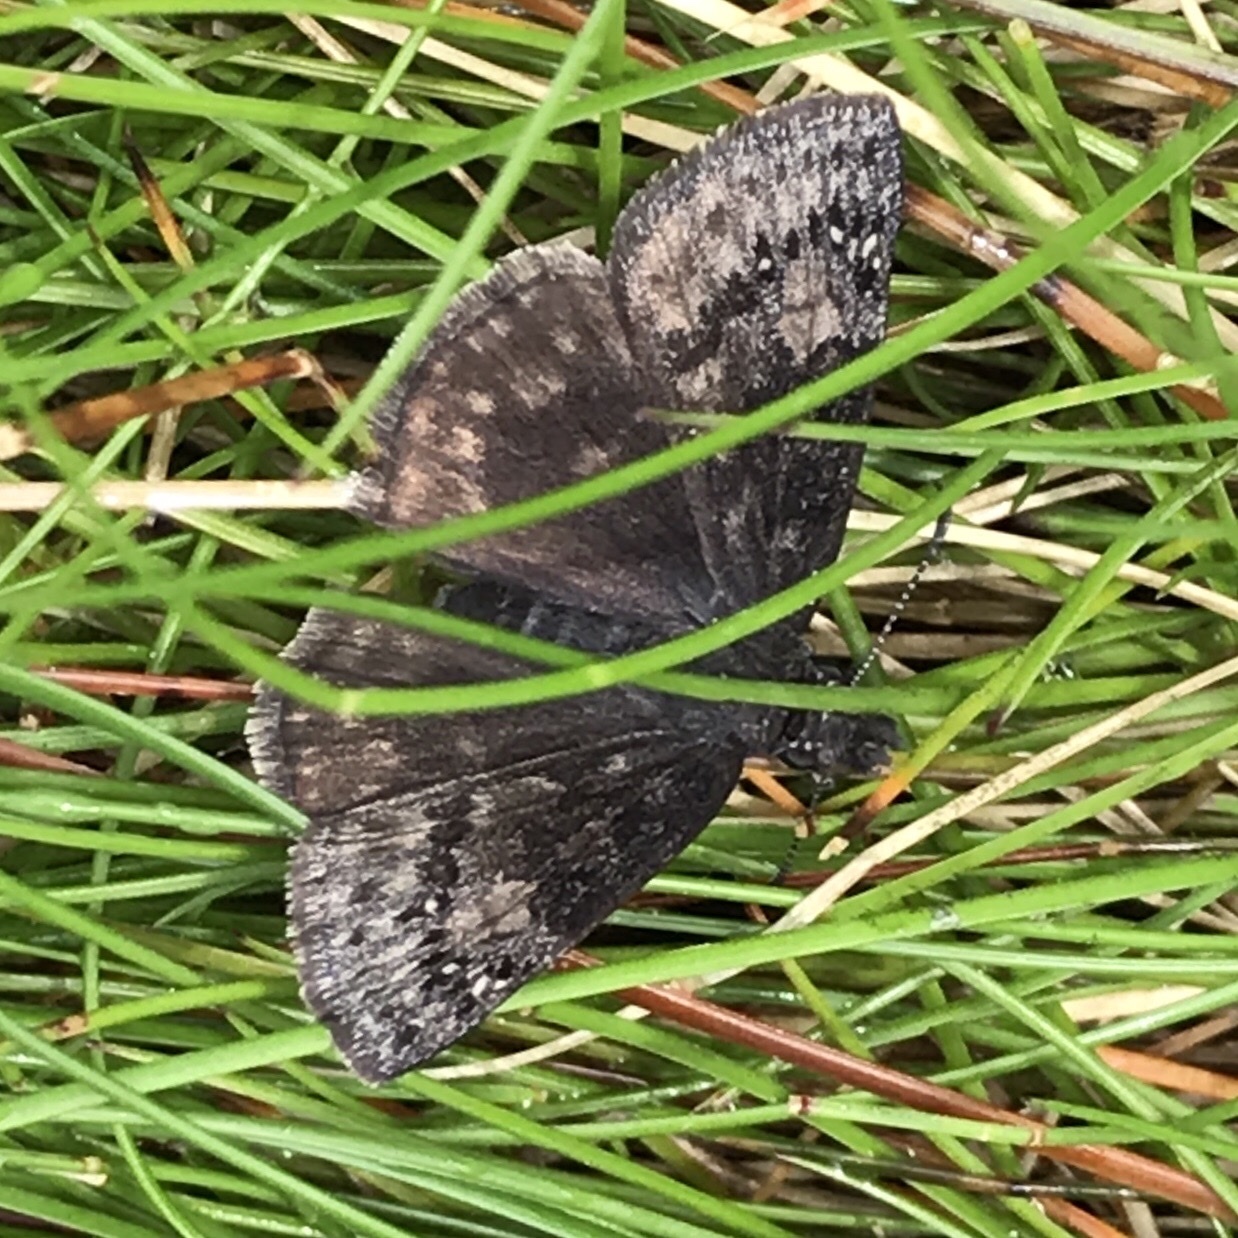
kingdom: Animalia
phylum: Arthropoda
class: Insecta
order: Lepidoptera
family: Hesperiidae
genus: Erynnis
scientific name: Erynnis baptisiae
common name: Wild indigo duskywing
